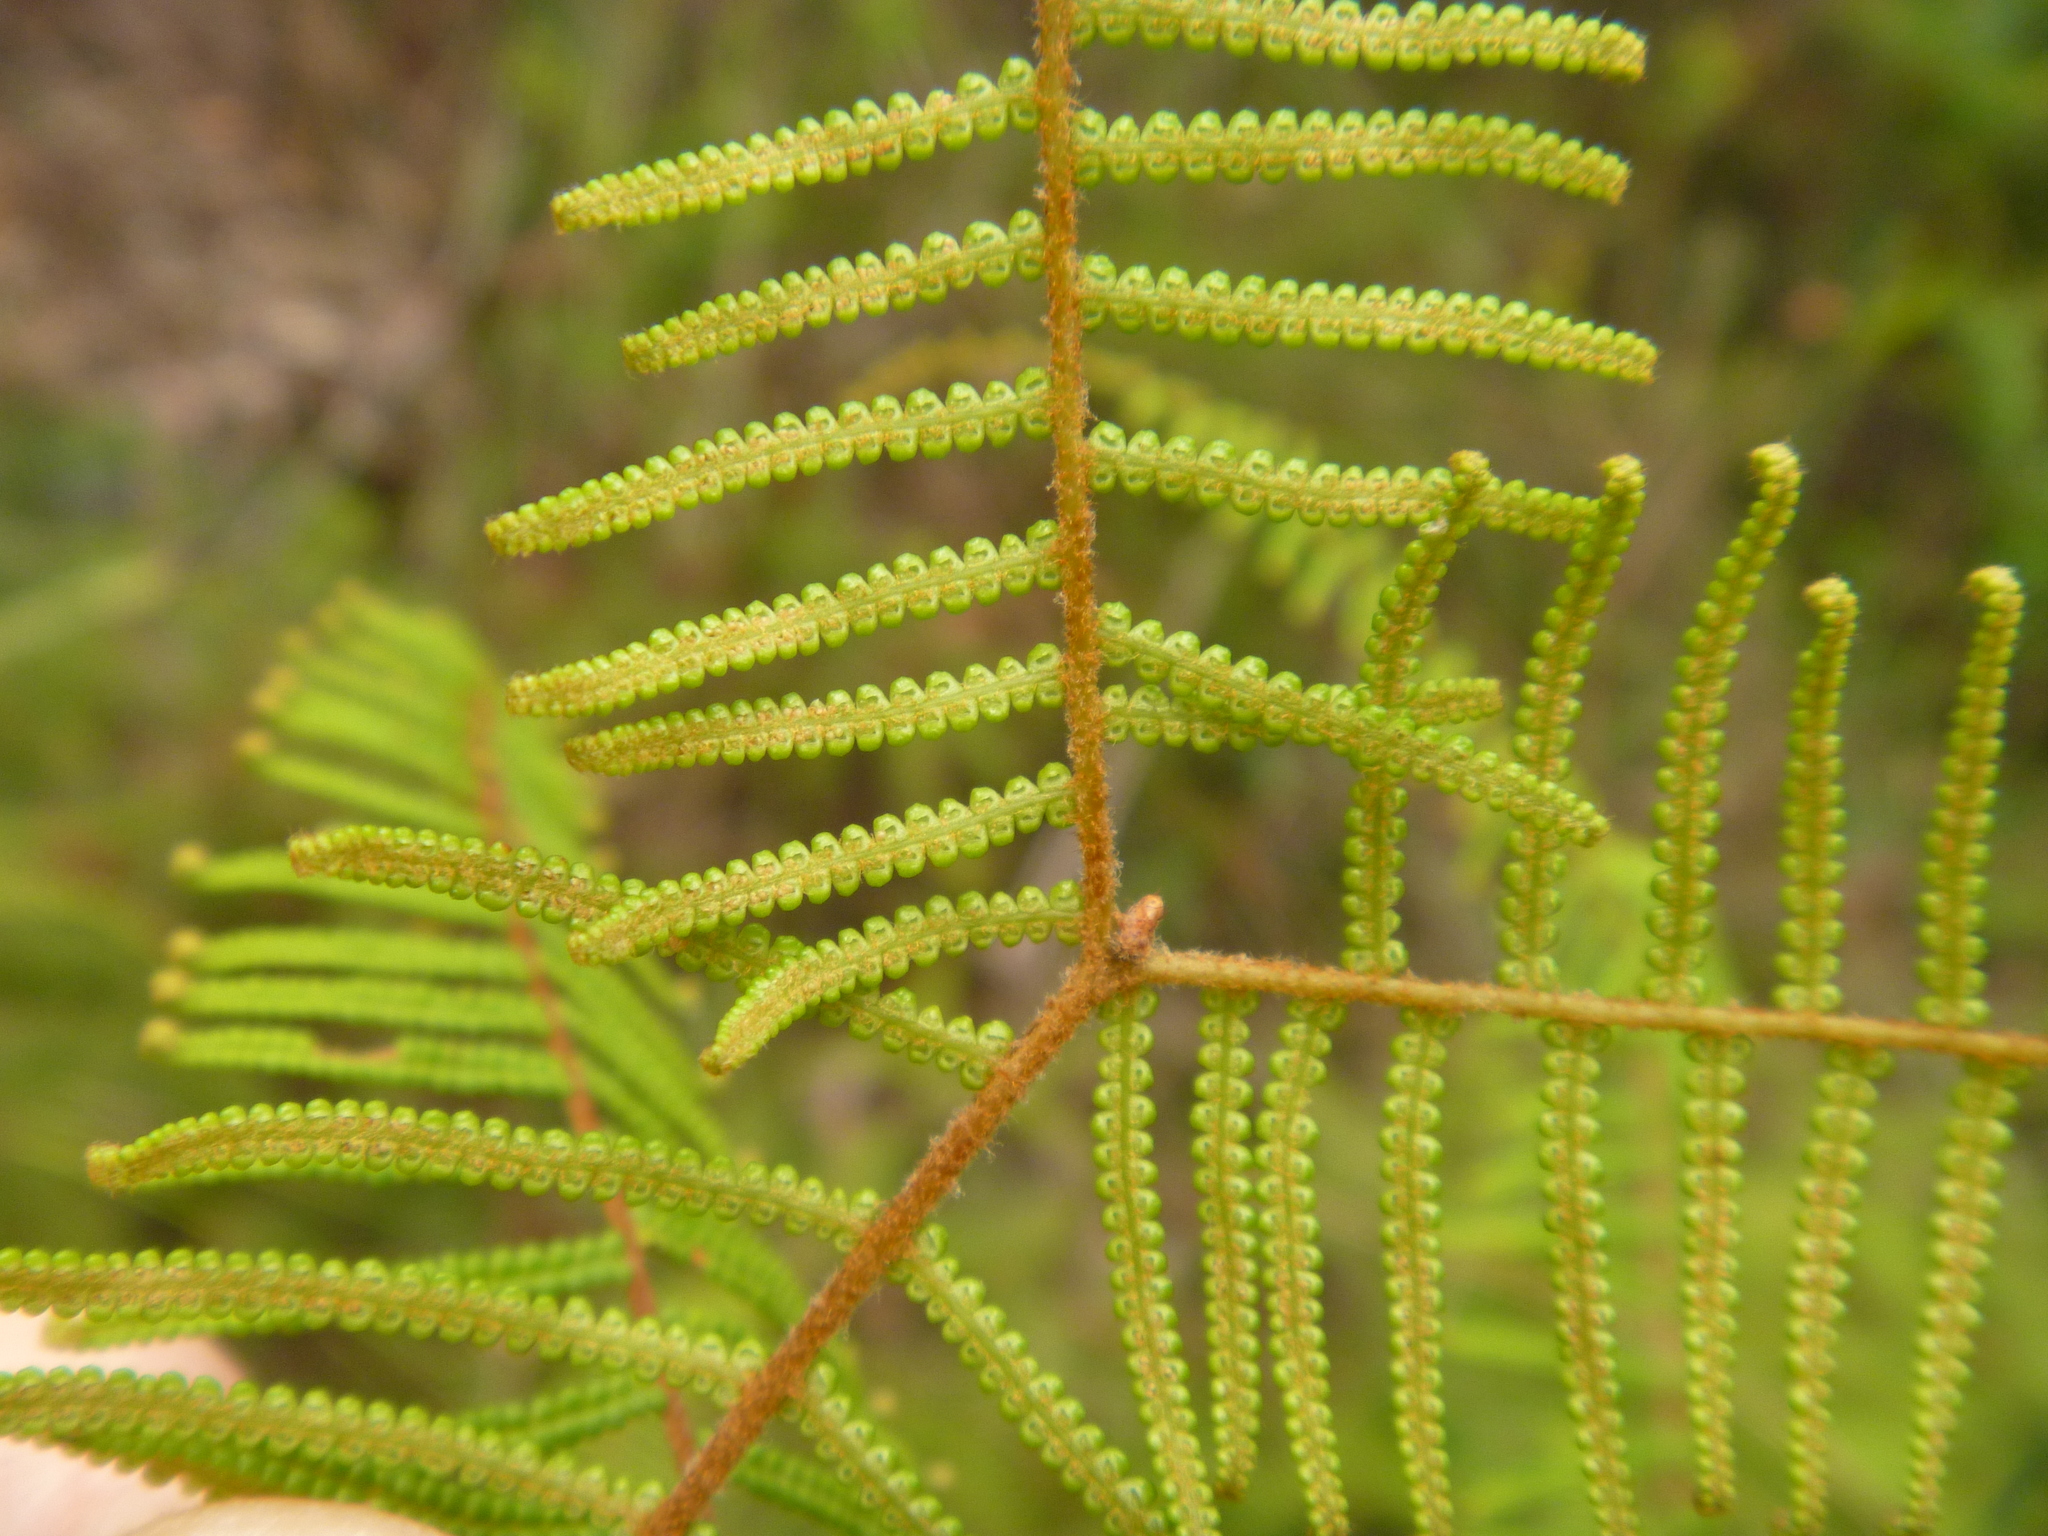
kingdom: Plantae
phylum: Tracheophyta
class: Polypodiopsida
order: Gleicheniales
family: Gleicheniaceae
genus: Gleichenia
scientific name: Gleichenia dicarpa
